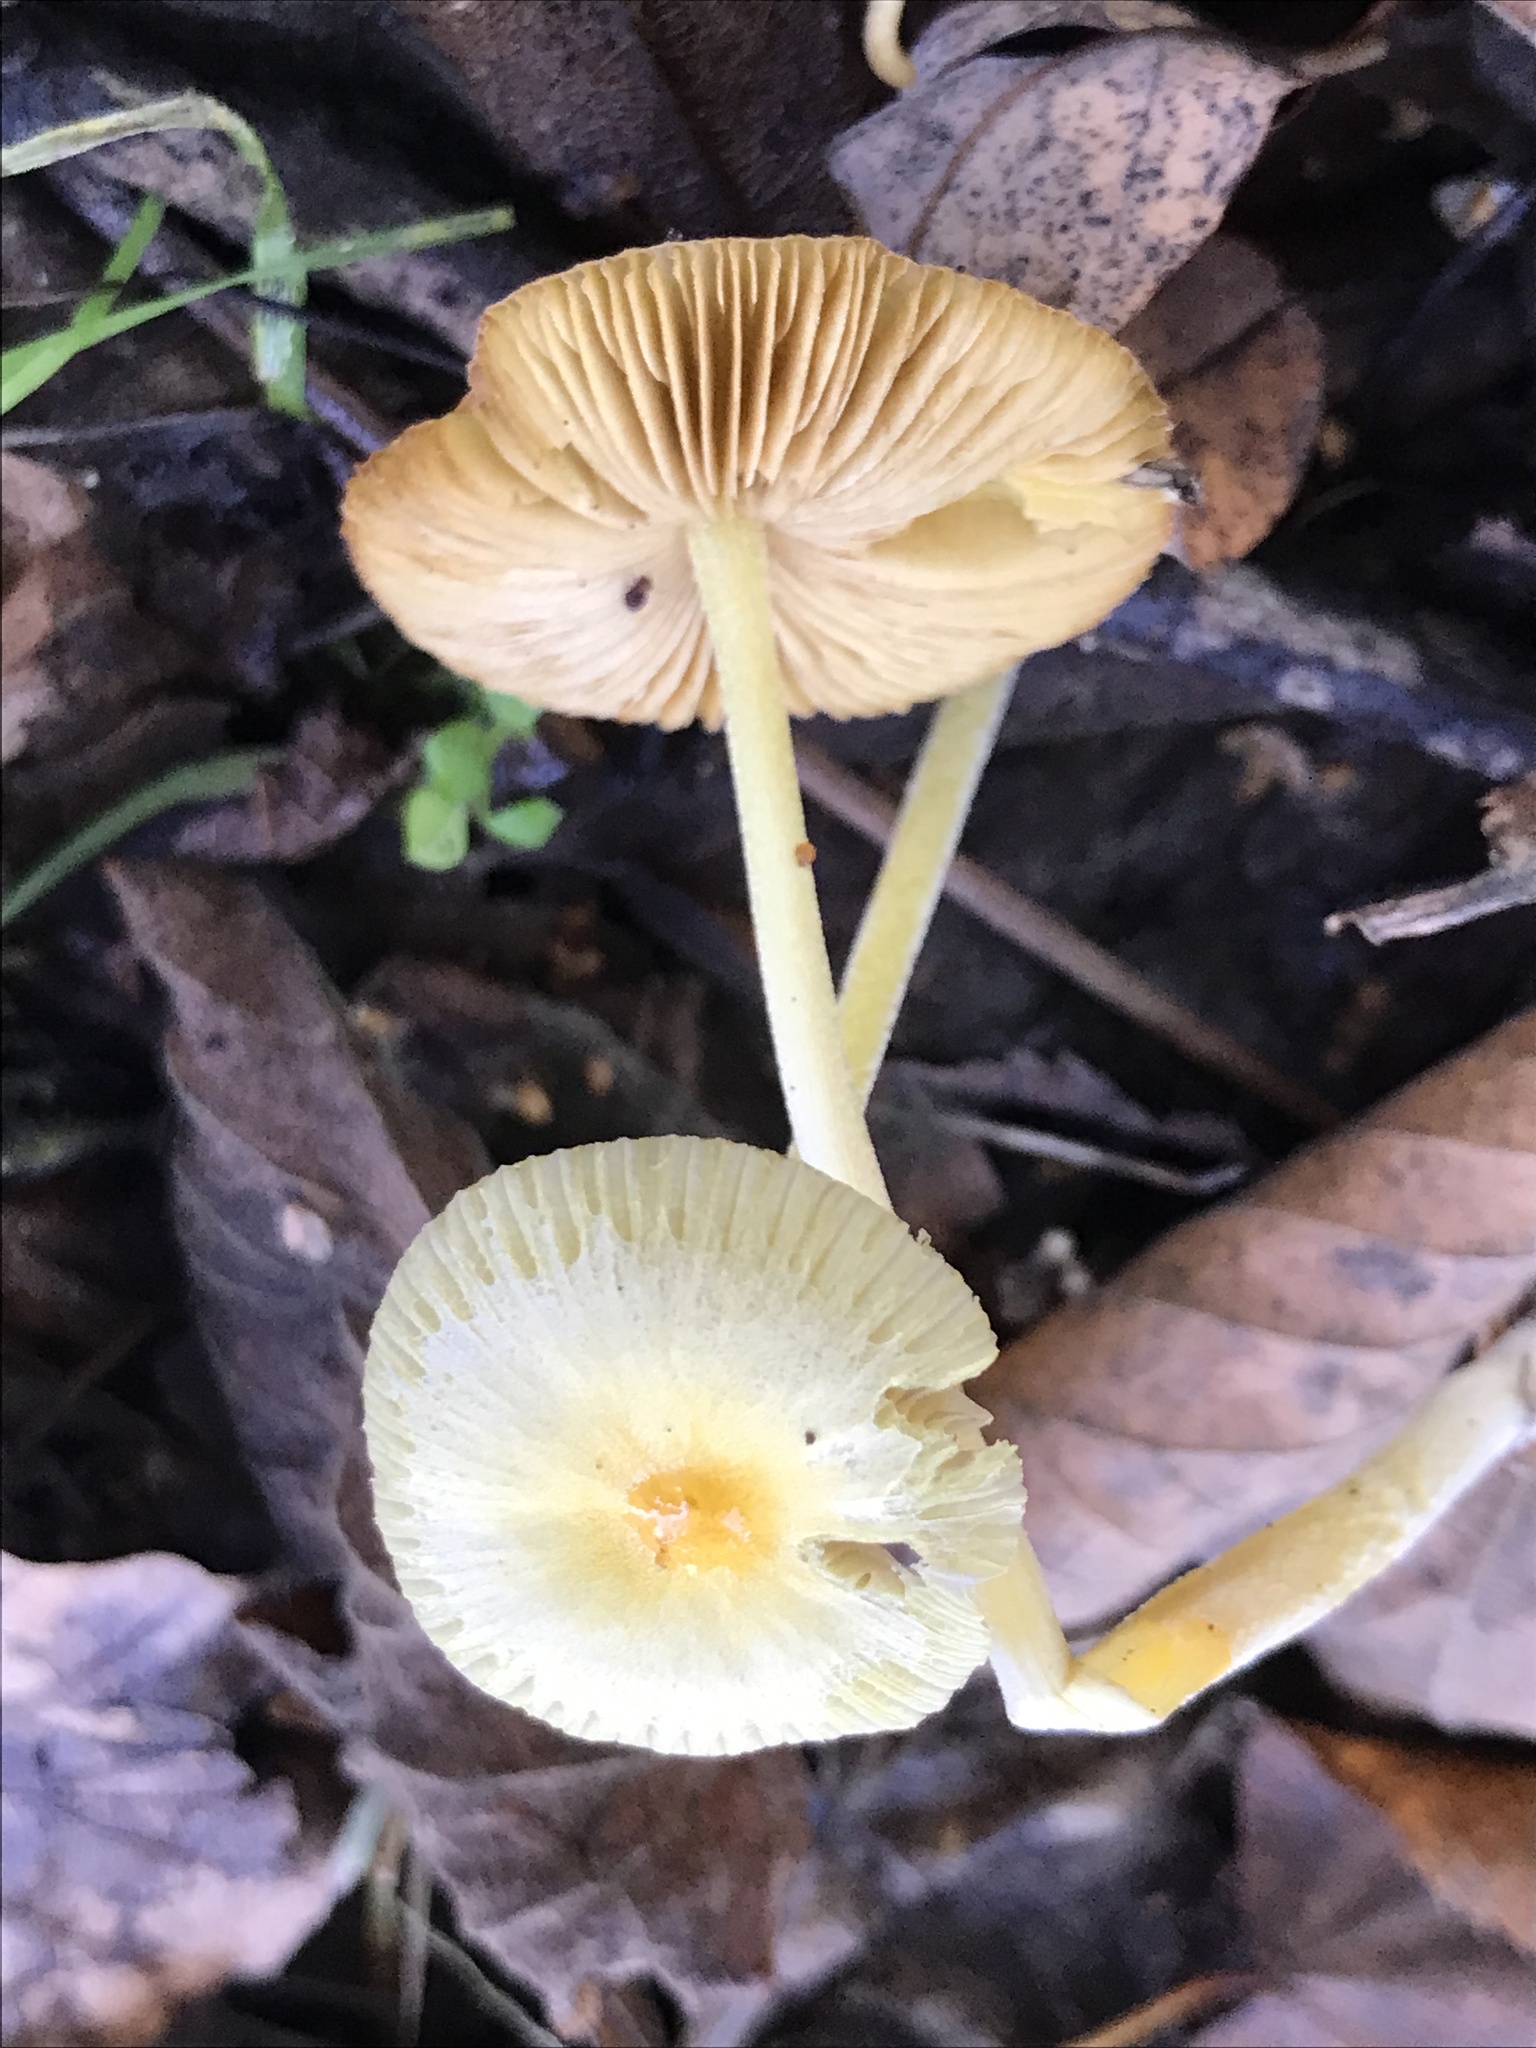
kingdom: Fungi
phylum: Basidiomycota
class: Agaricomycetes
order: Agaricales
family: Bolbitiaceae
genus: Bolbitius
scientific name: Bolbitius titubans
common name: Yellow fieldcap
